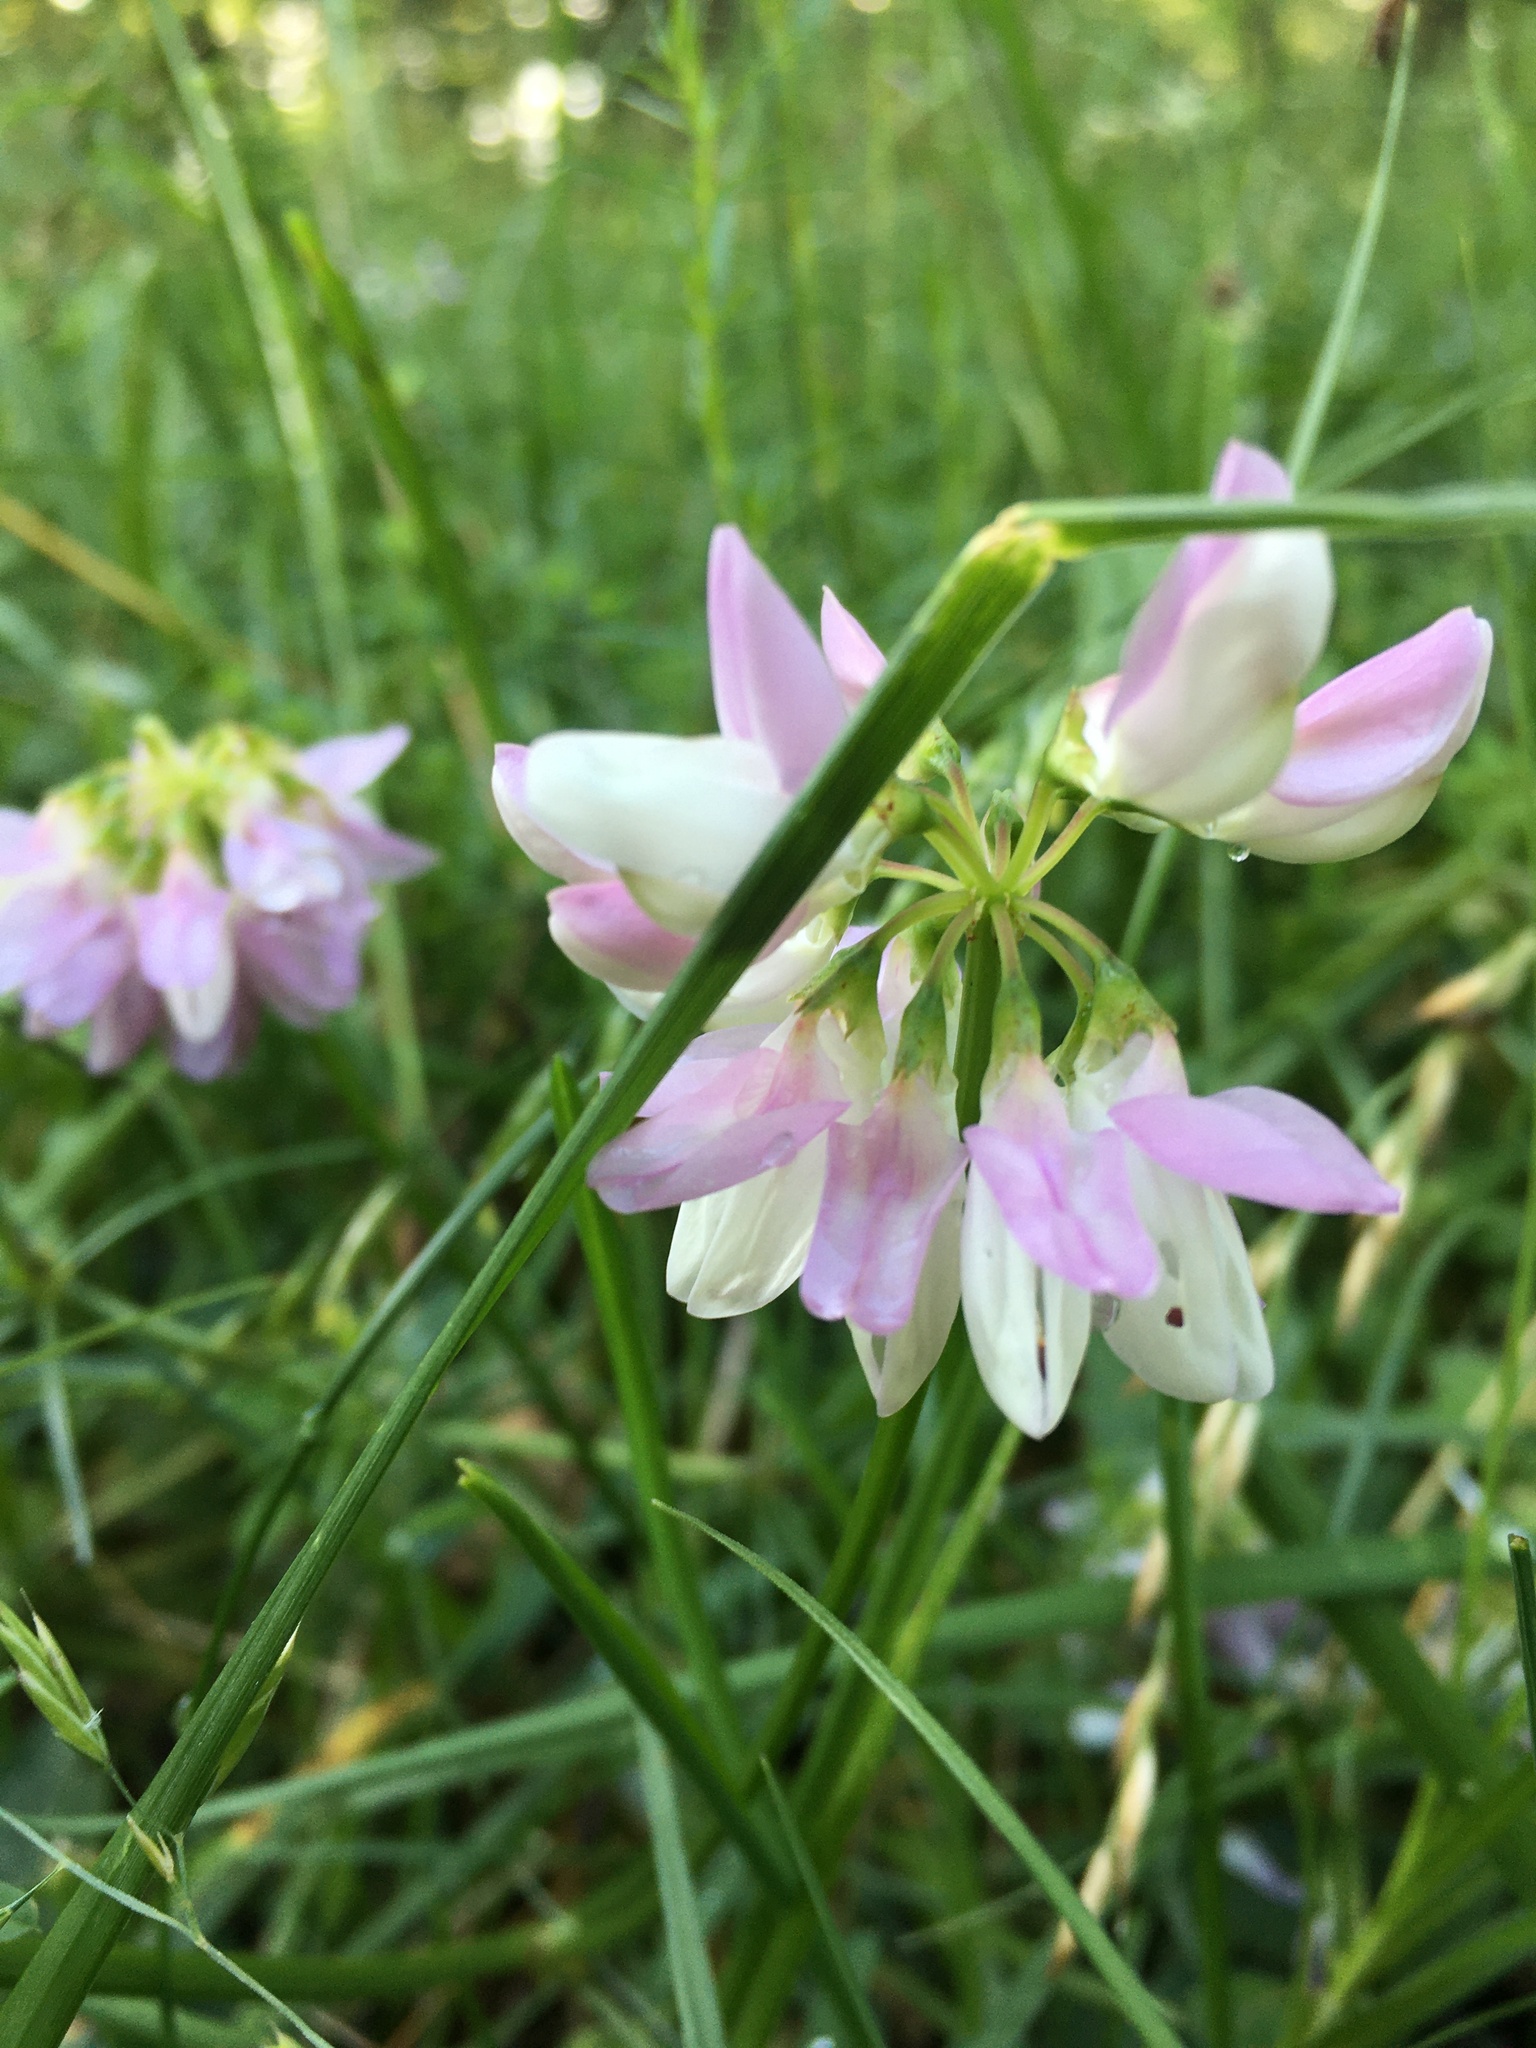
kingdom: Plantae
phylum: Tracheophyta
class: Magnoliopsida
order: Fabales
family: Fabaceae
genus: Coronilla
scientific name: Coronilla varia
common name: Crownvetch
